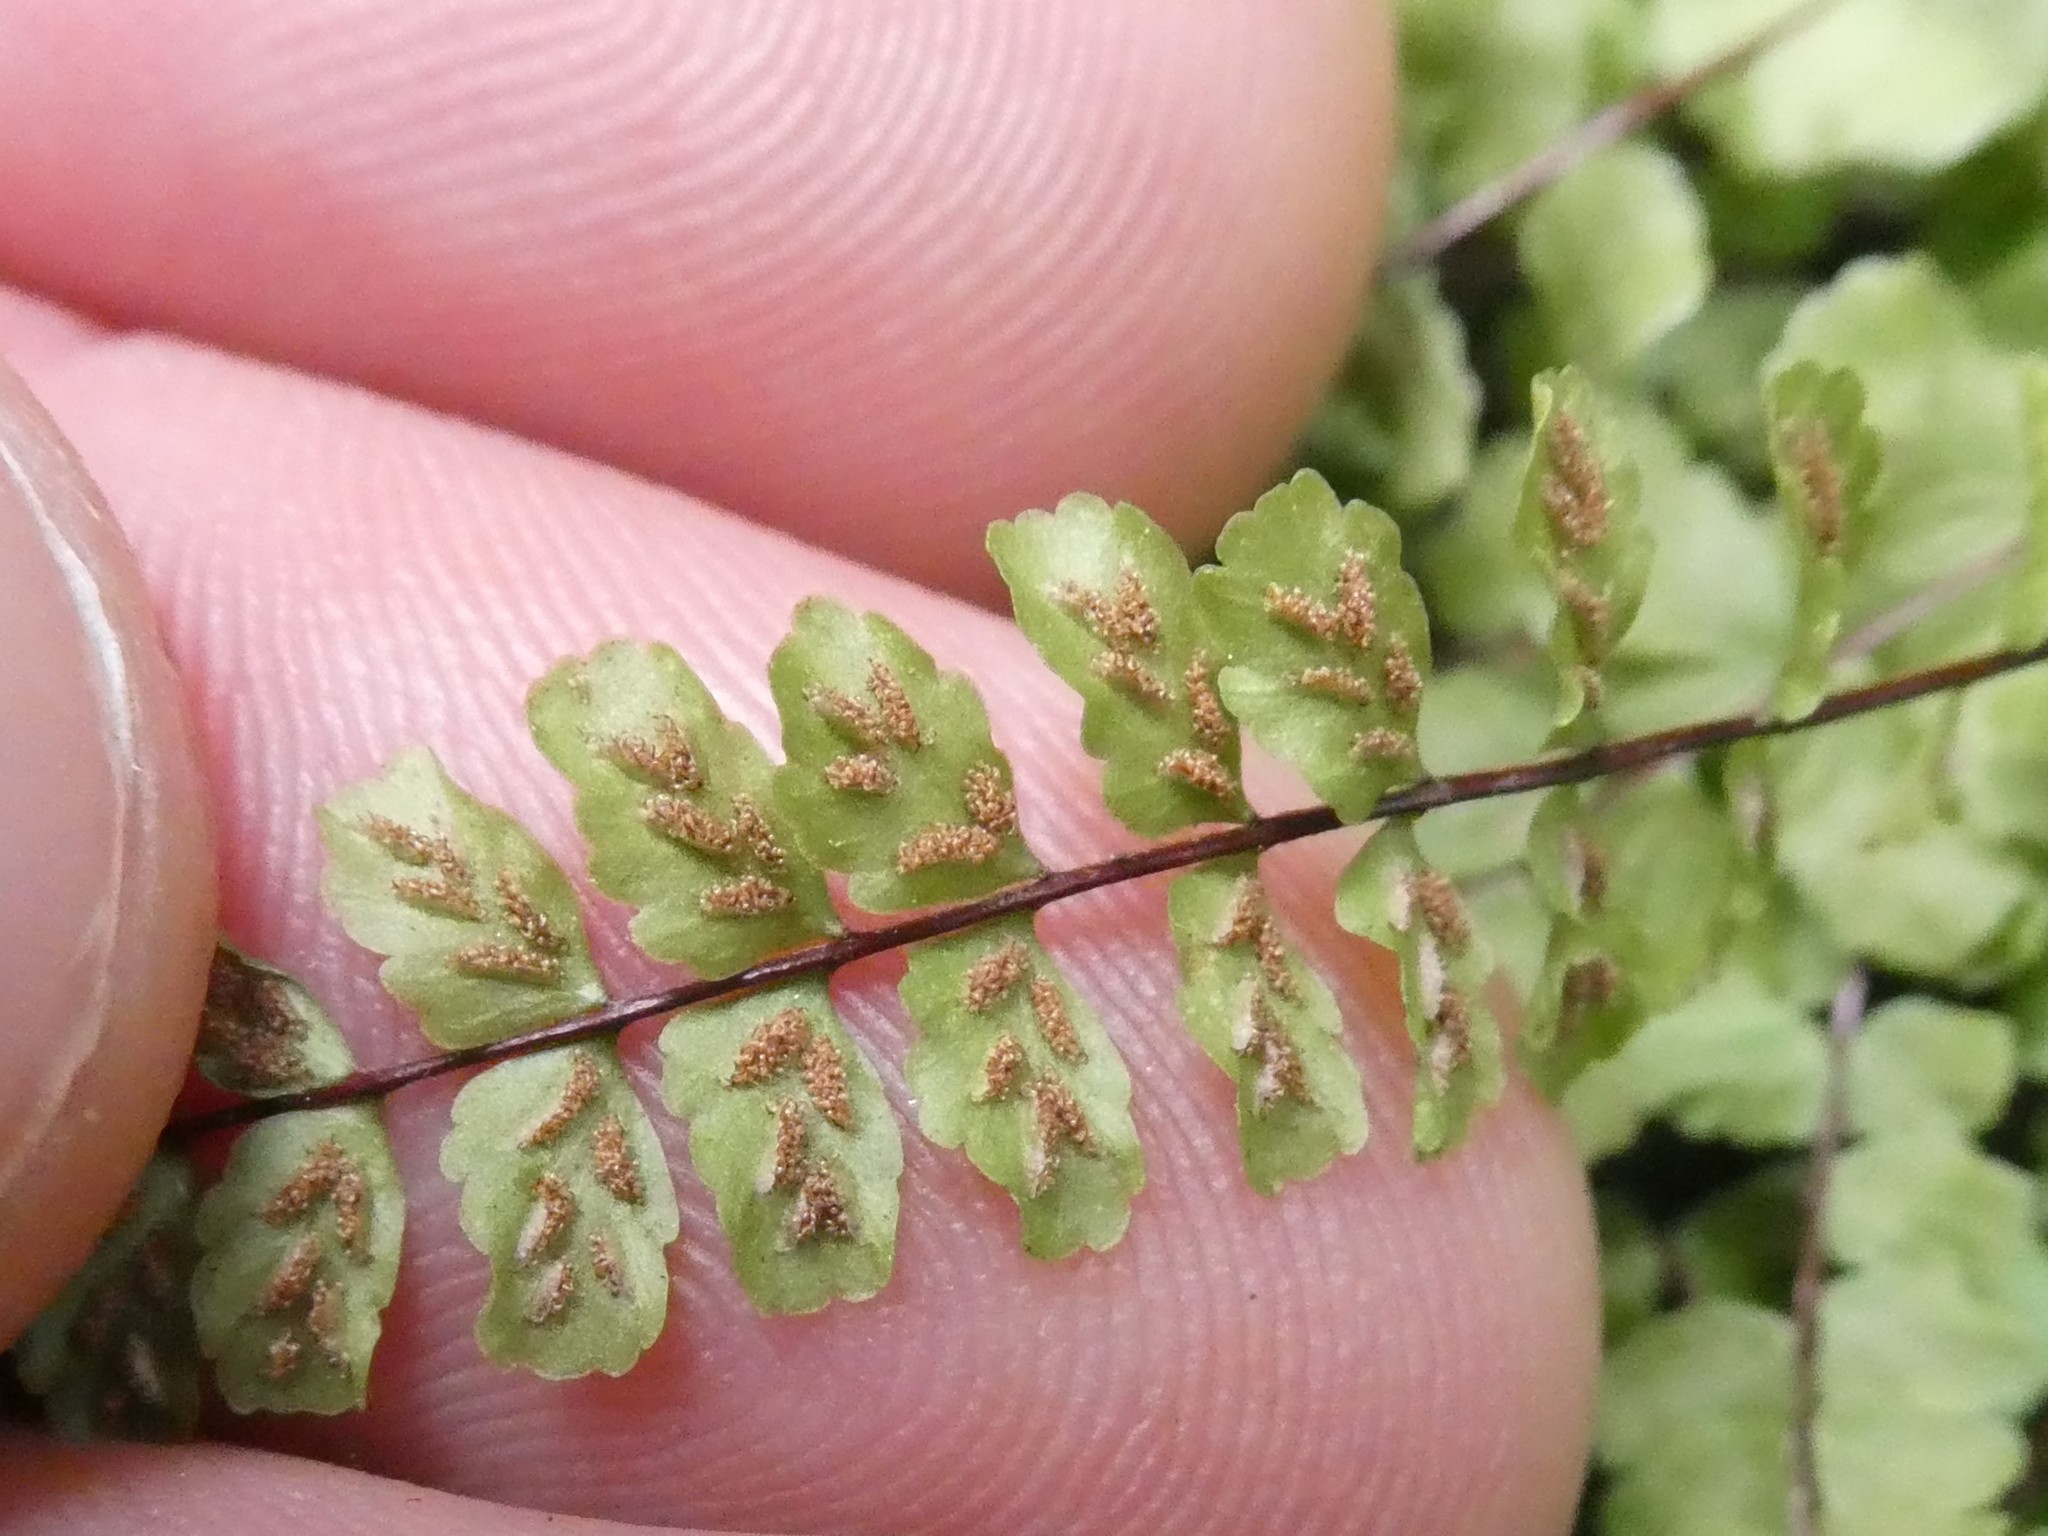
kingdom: Plantae
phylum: Tracheophyta
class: Polypodiopsida
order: Polypodiales
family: Aspleniaceae
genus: Asplenium
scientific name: Asplenium trichomanes
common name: Maidenhair spleenwort
